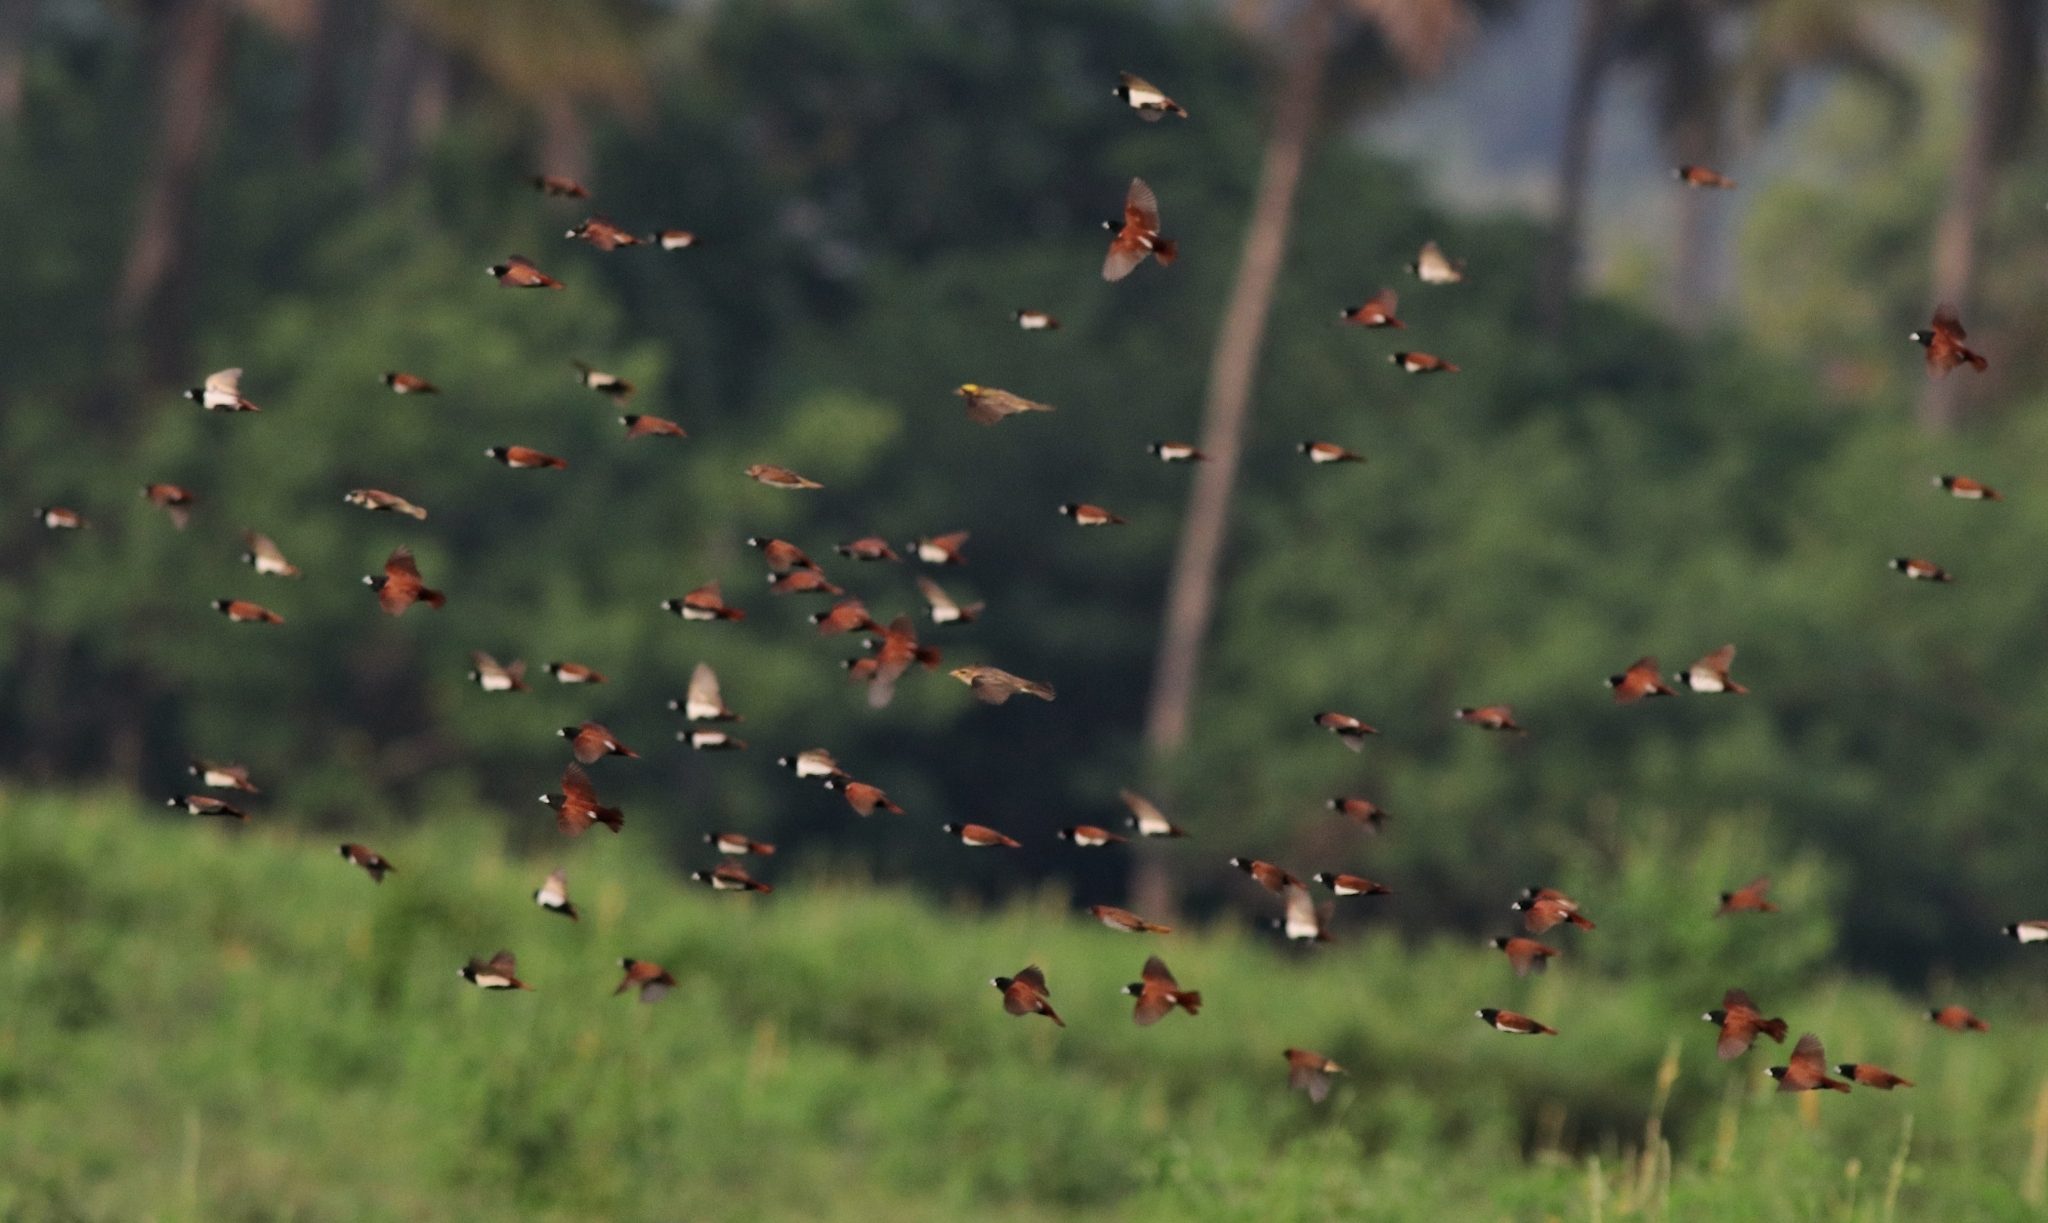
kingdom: Animalia
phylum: Chordata
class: Aves
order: Passeriformes
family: Estrildidae
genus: Lonchura
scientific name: Lonchura malacca
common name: Tricolored munia
